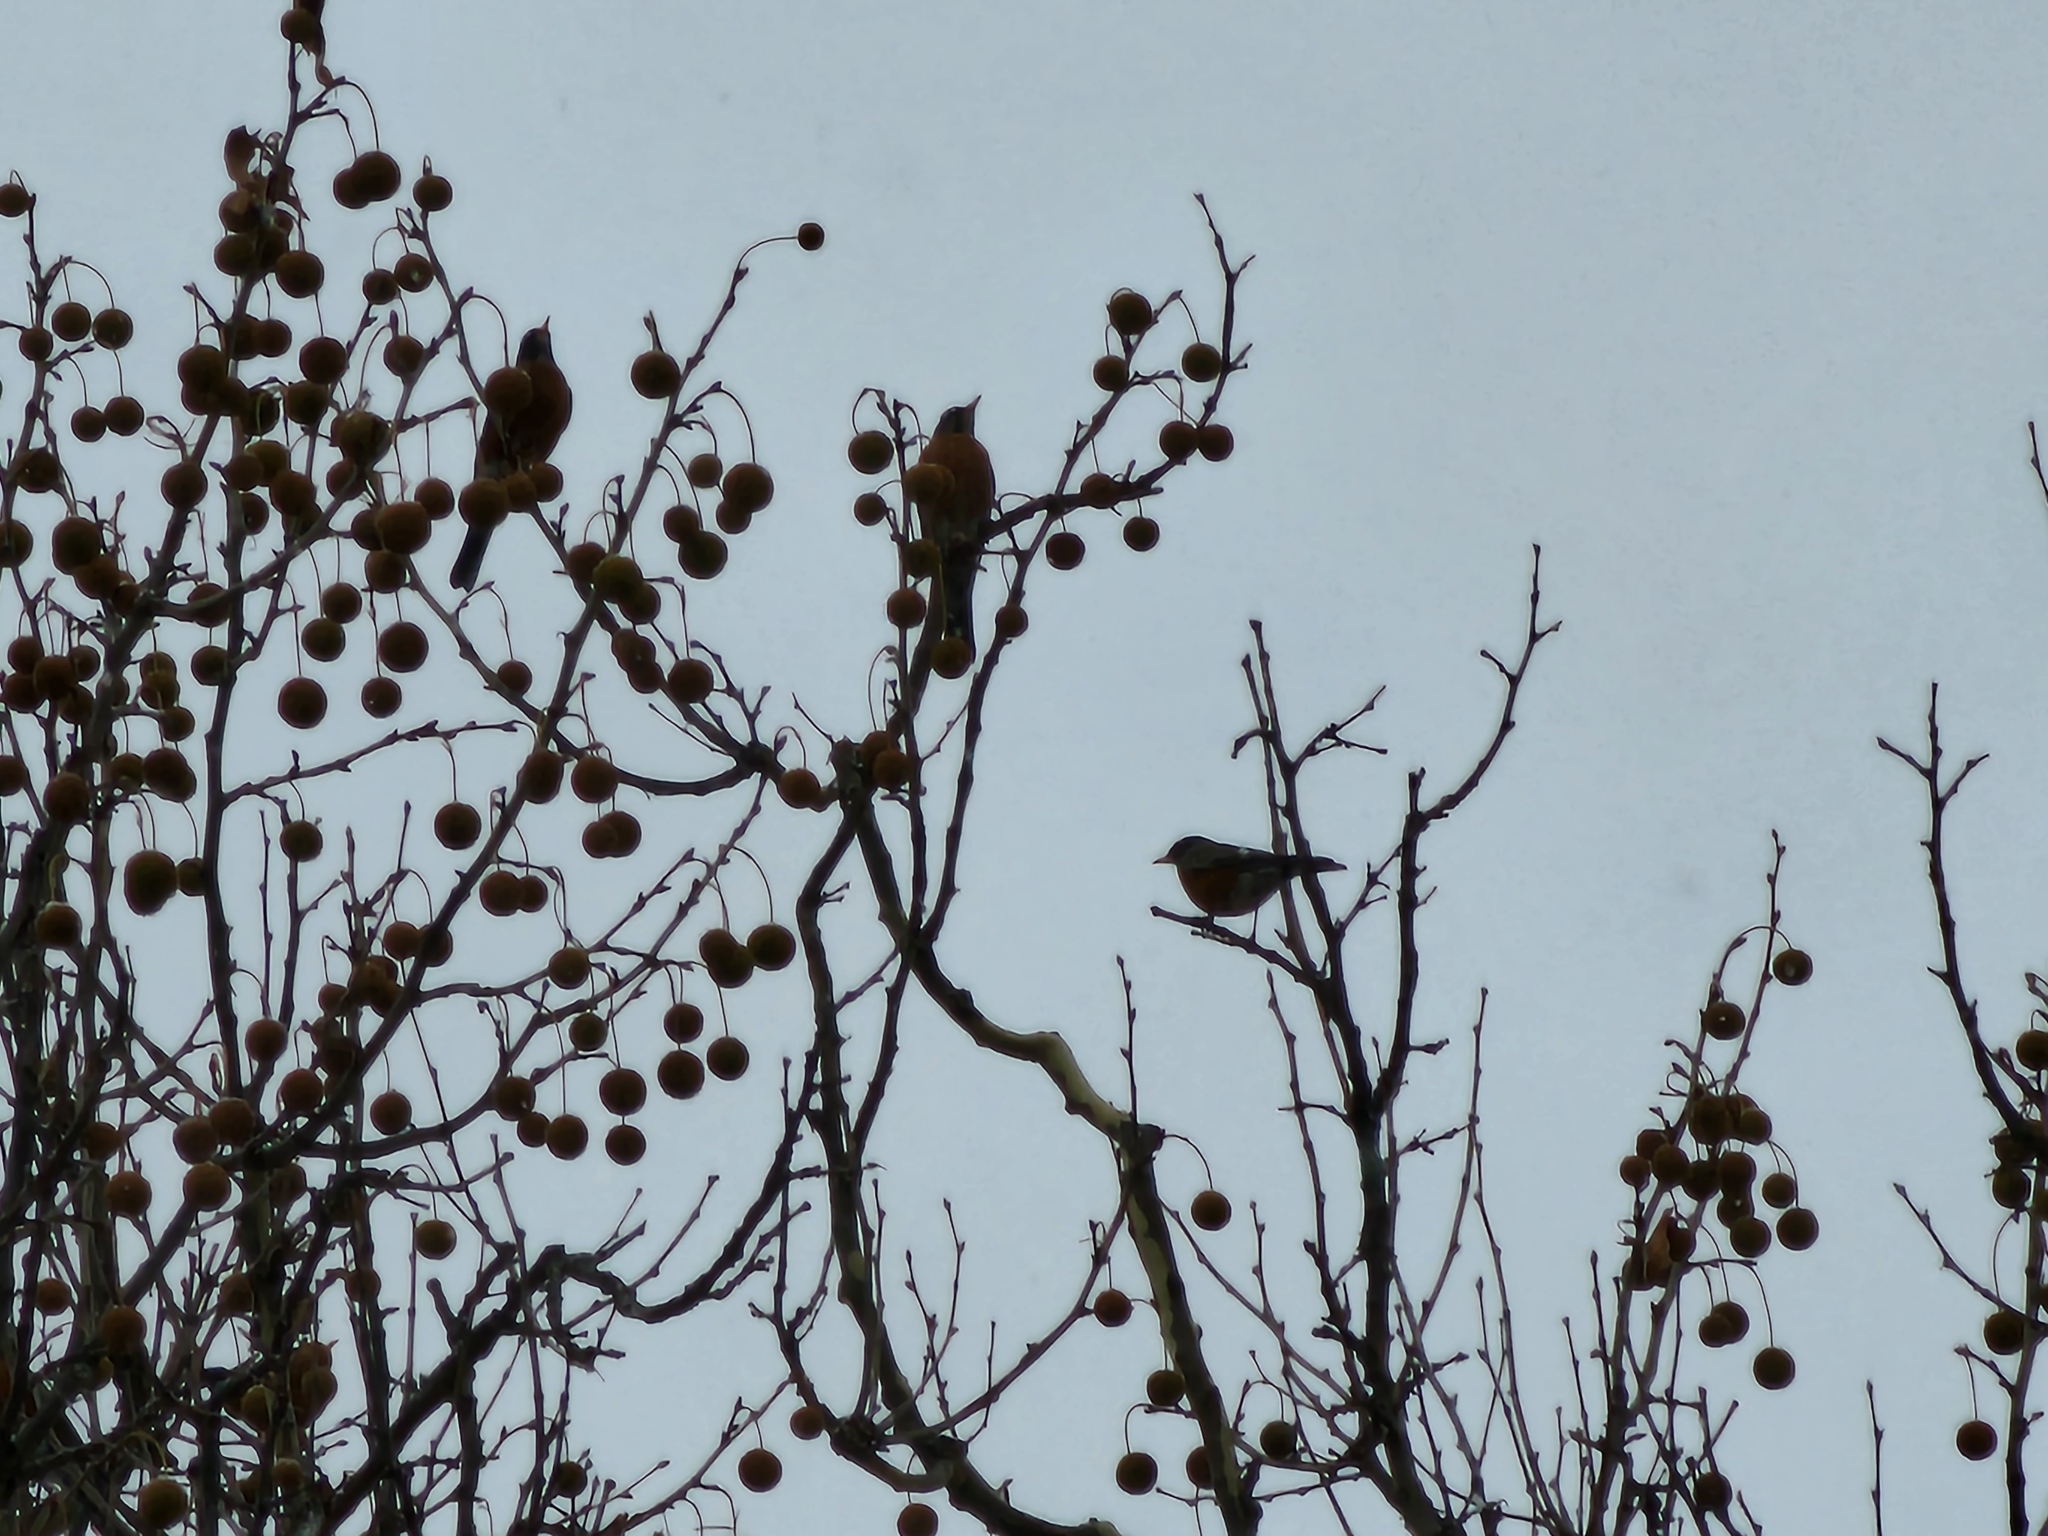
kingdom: Animalia
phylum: Chordata
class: Aves
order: Passeriformes
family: Turdidae
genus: Turdus
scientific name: Turdus migratorius
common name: American robin
